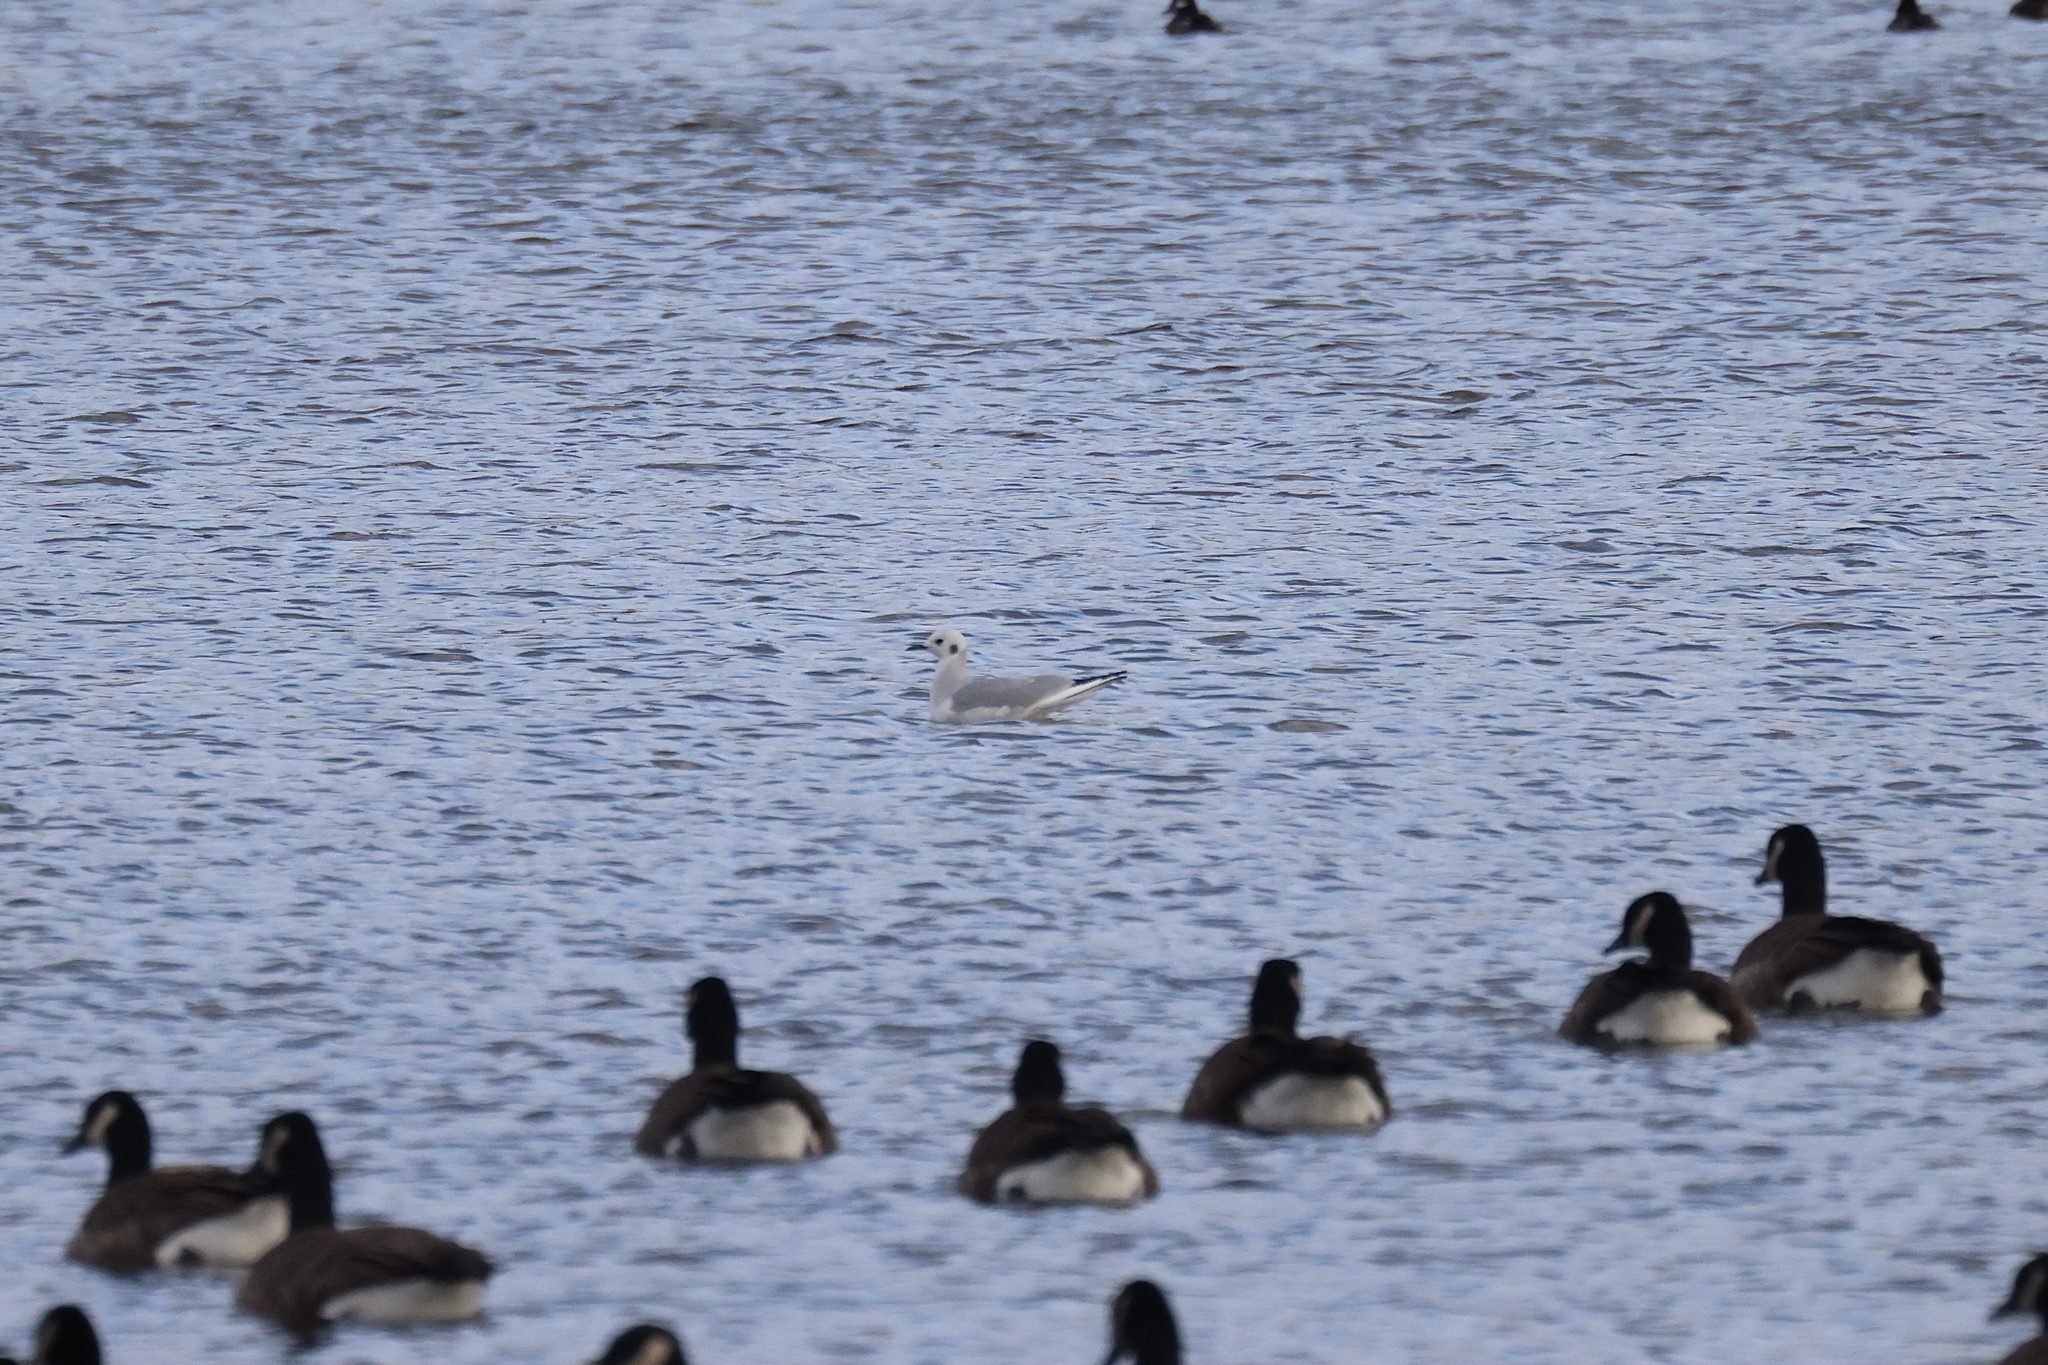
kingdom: Animalia
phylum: Chordata
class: Aves
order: Charadriiformes
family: Laridae
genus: Chroicocephalus
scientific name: Chroicocephalus philadelphia
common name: Bonaparte's gull
